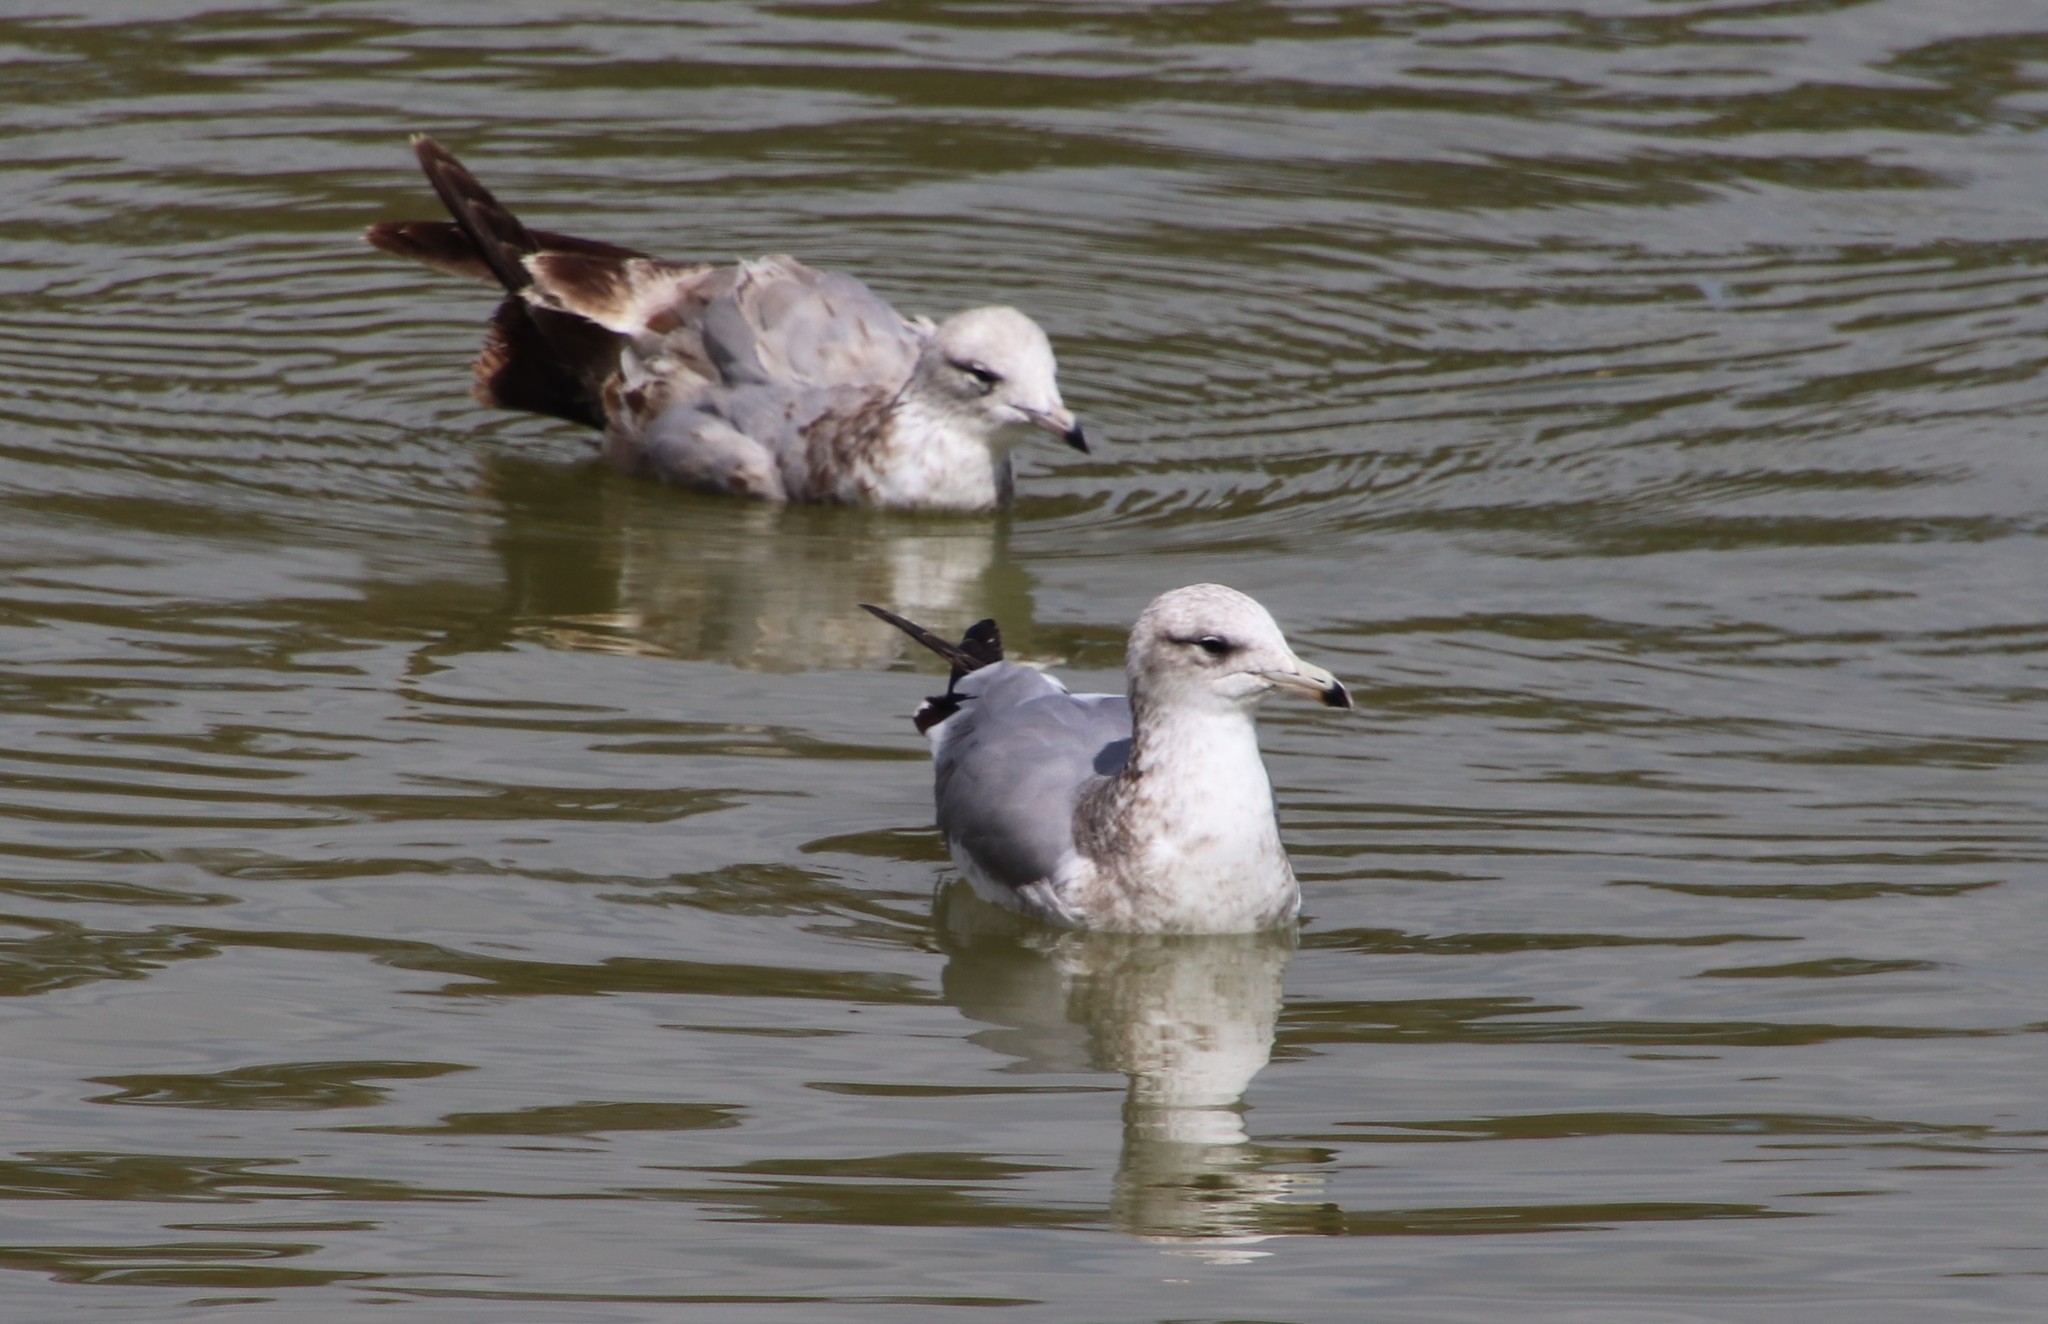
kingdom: Animalia
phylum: Chordata
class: Aves
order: Charadriiformes
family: Laridae
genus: Larus
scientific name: Larus californicus
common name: California gull
